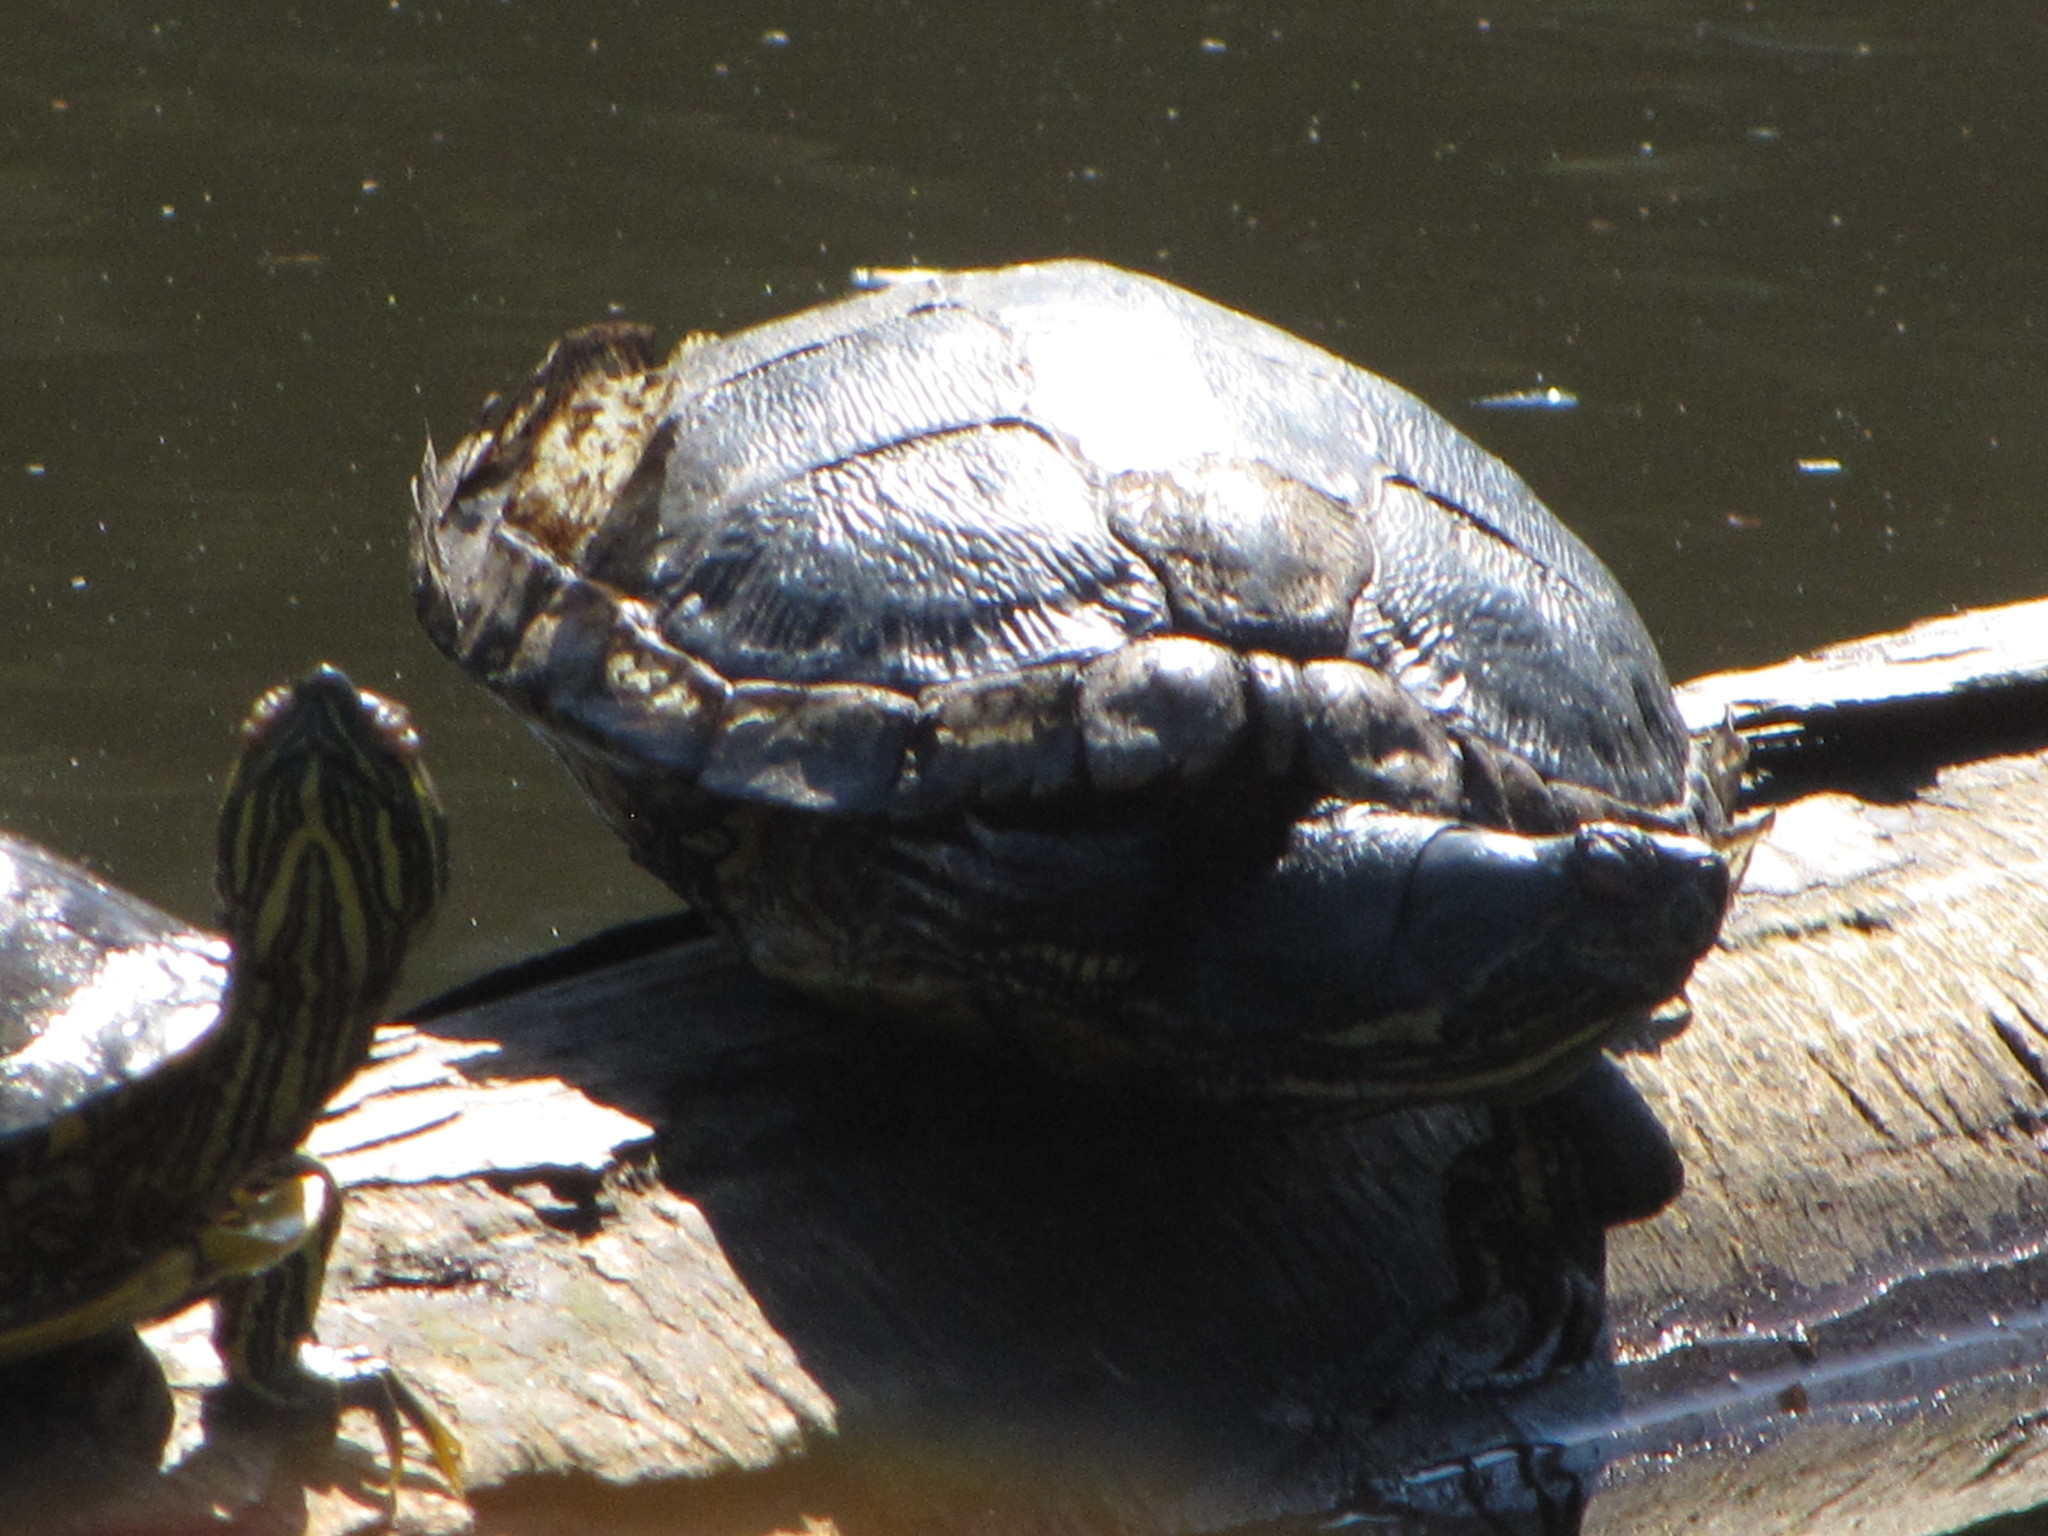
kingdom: Animalia
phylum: Chordata
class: Testudines
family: Emydidae
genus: Trachemys
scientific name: Trachemys scripta
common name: Slider
